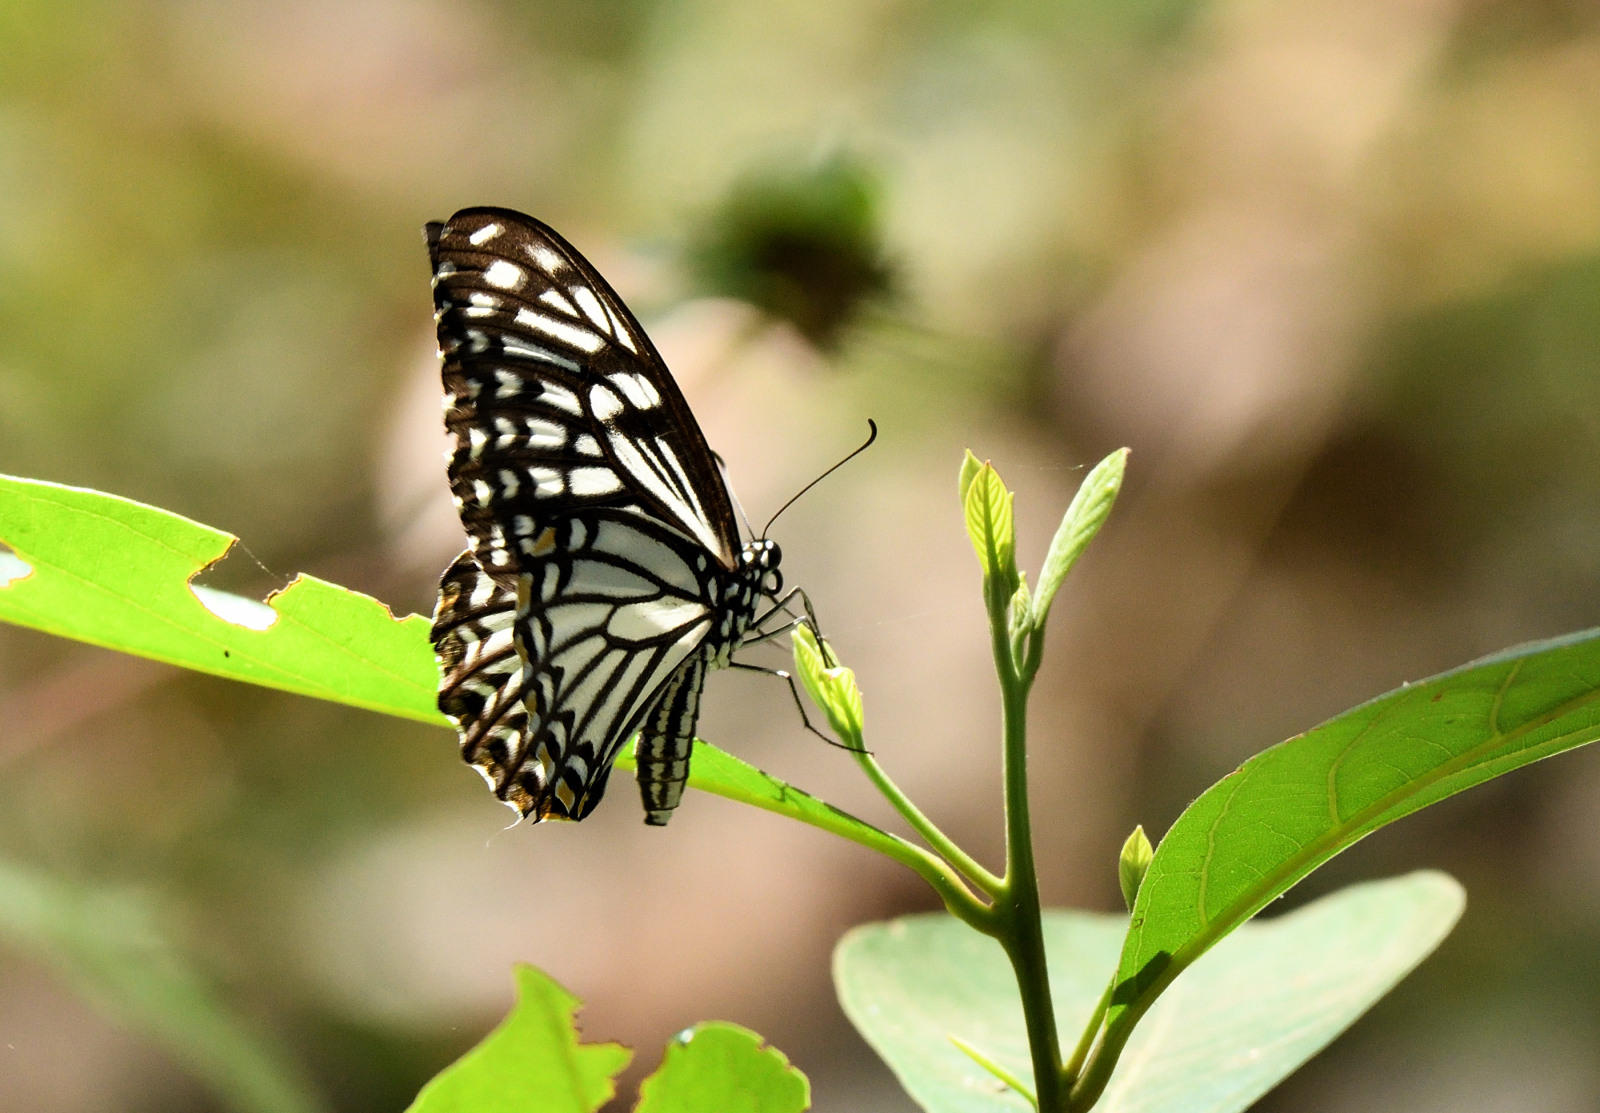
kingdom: Animalia
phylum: Arthropoda
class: Insecta
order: Lepidoptera
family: Papilionidae
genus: Chilasa
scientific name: Chilasa clytia
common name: Common mime
